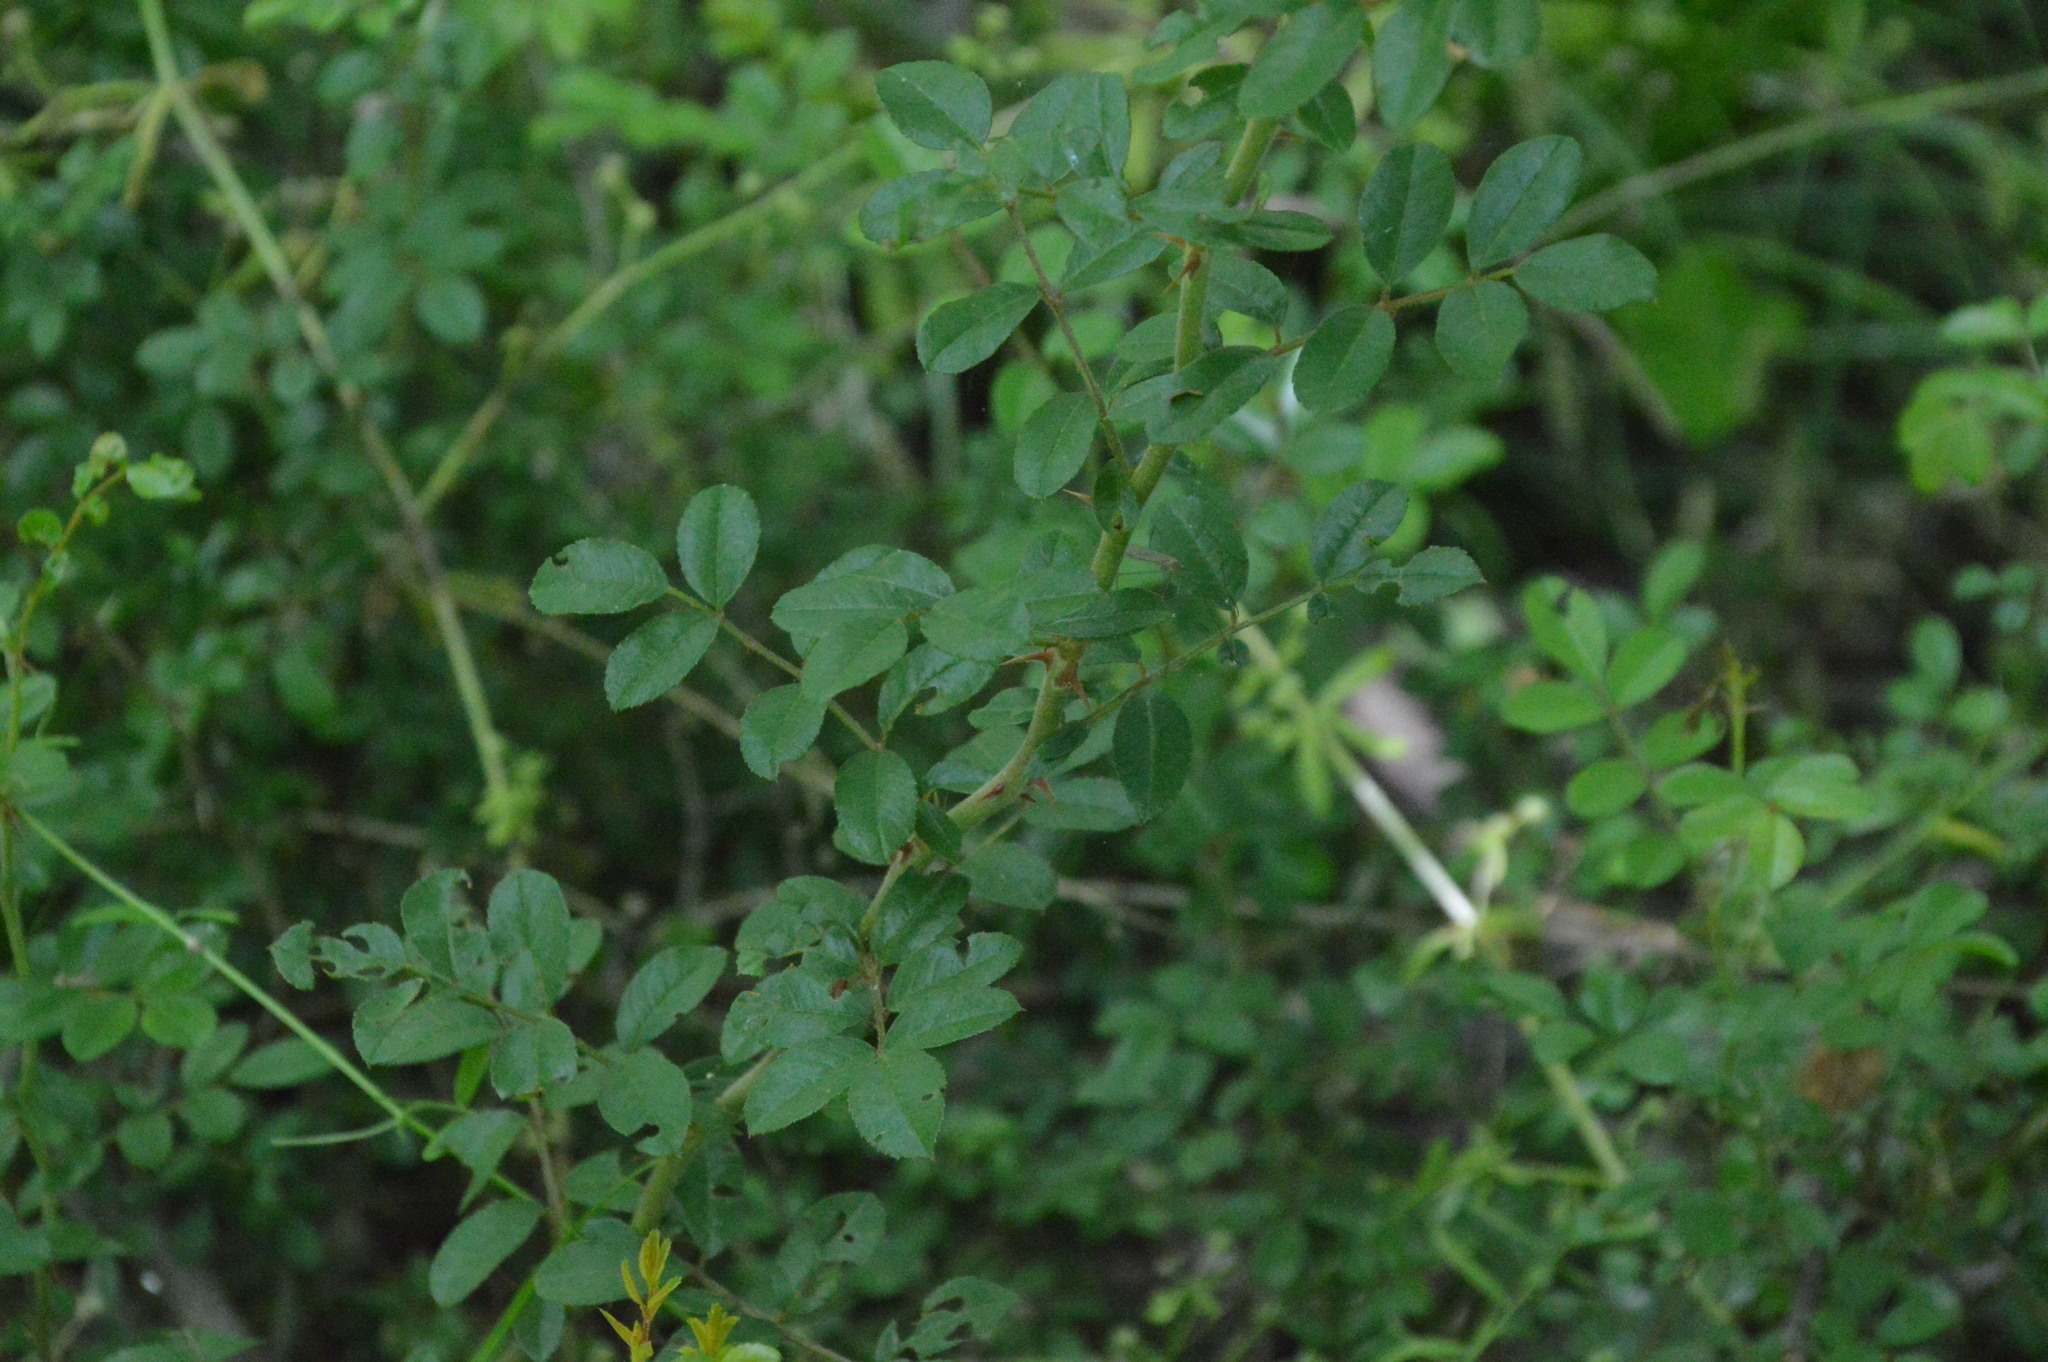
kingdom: Plantae
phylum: Tracheophyta
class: Magnoliopsida
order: Rosales
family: Rosaceae
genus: Rosa
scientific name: Rosa bracteata
